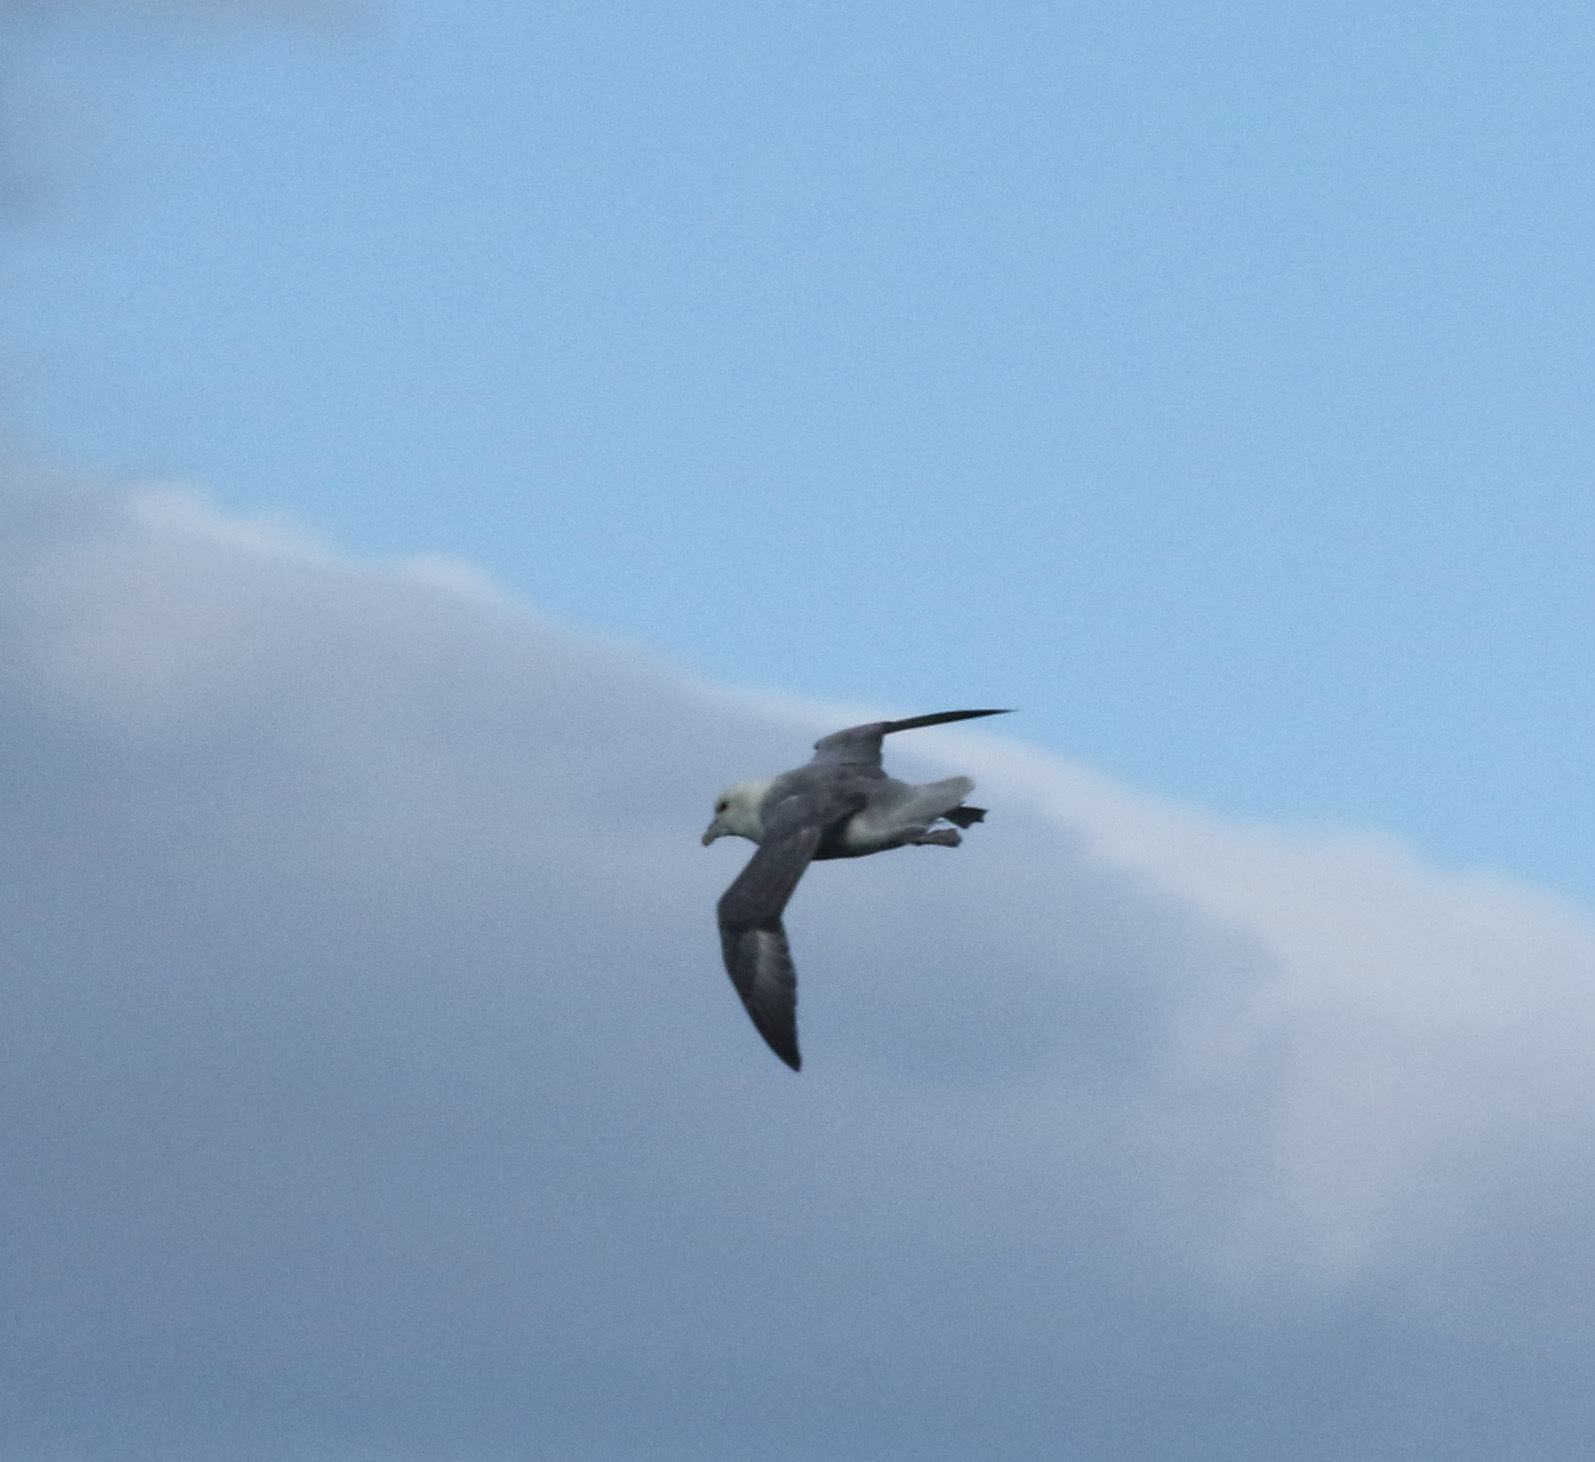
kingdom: Animalia
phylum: Chordata
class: Aves
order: Procellariiformes
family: Procellariidae
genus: Fulmarus
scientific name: Fulmarus glacialis
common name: Northern fulmar
